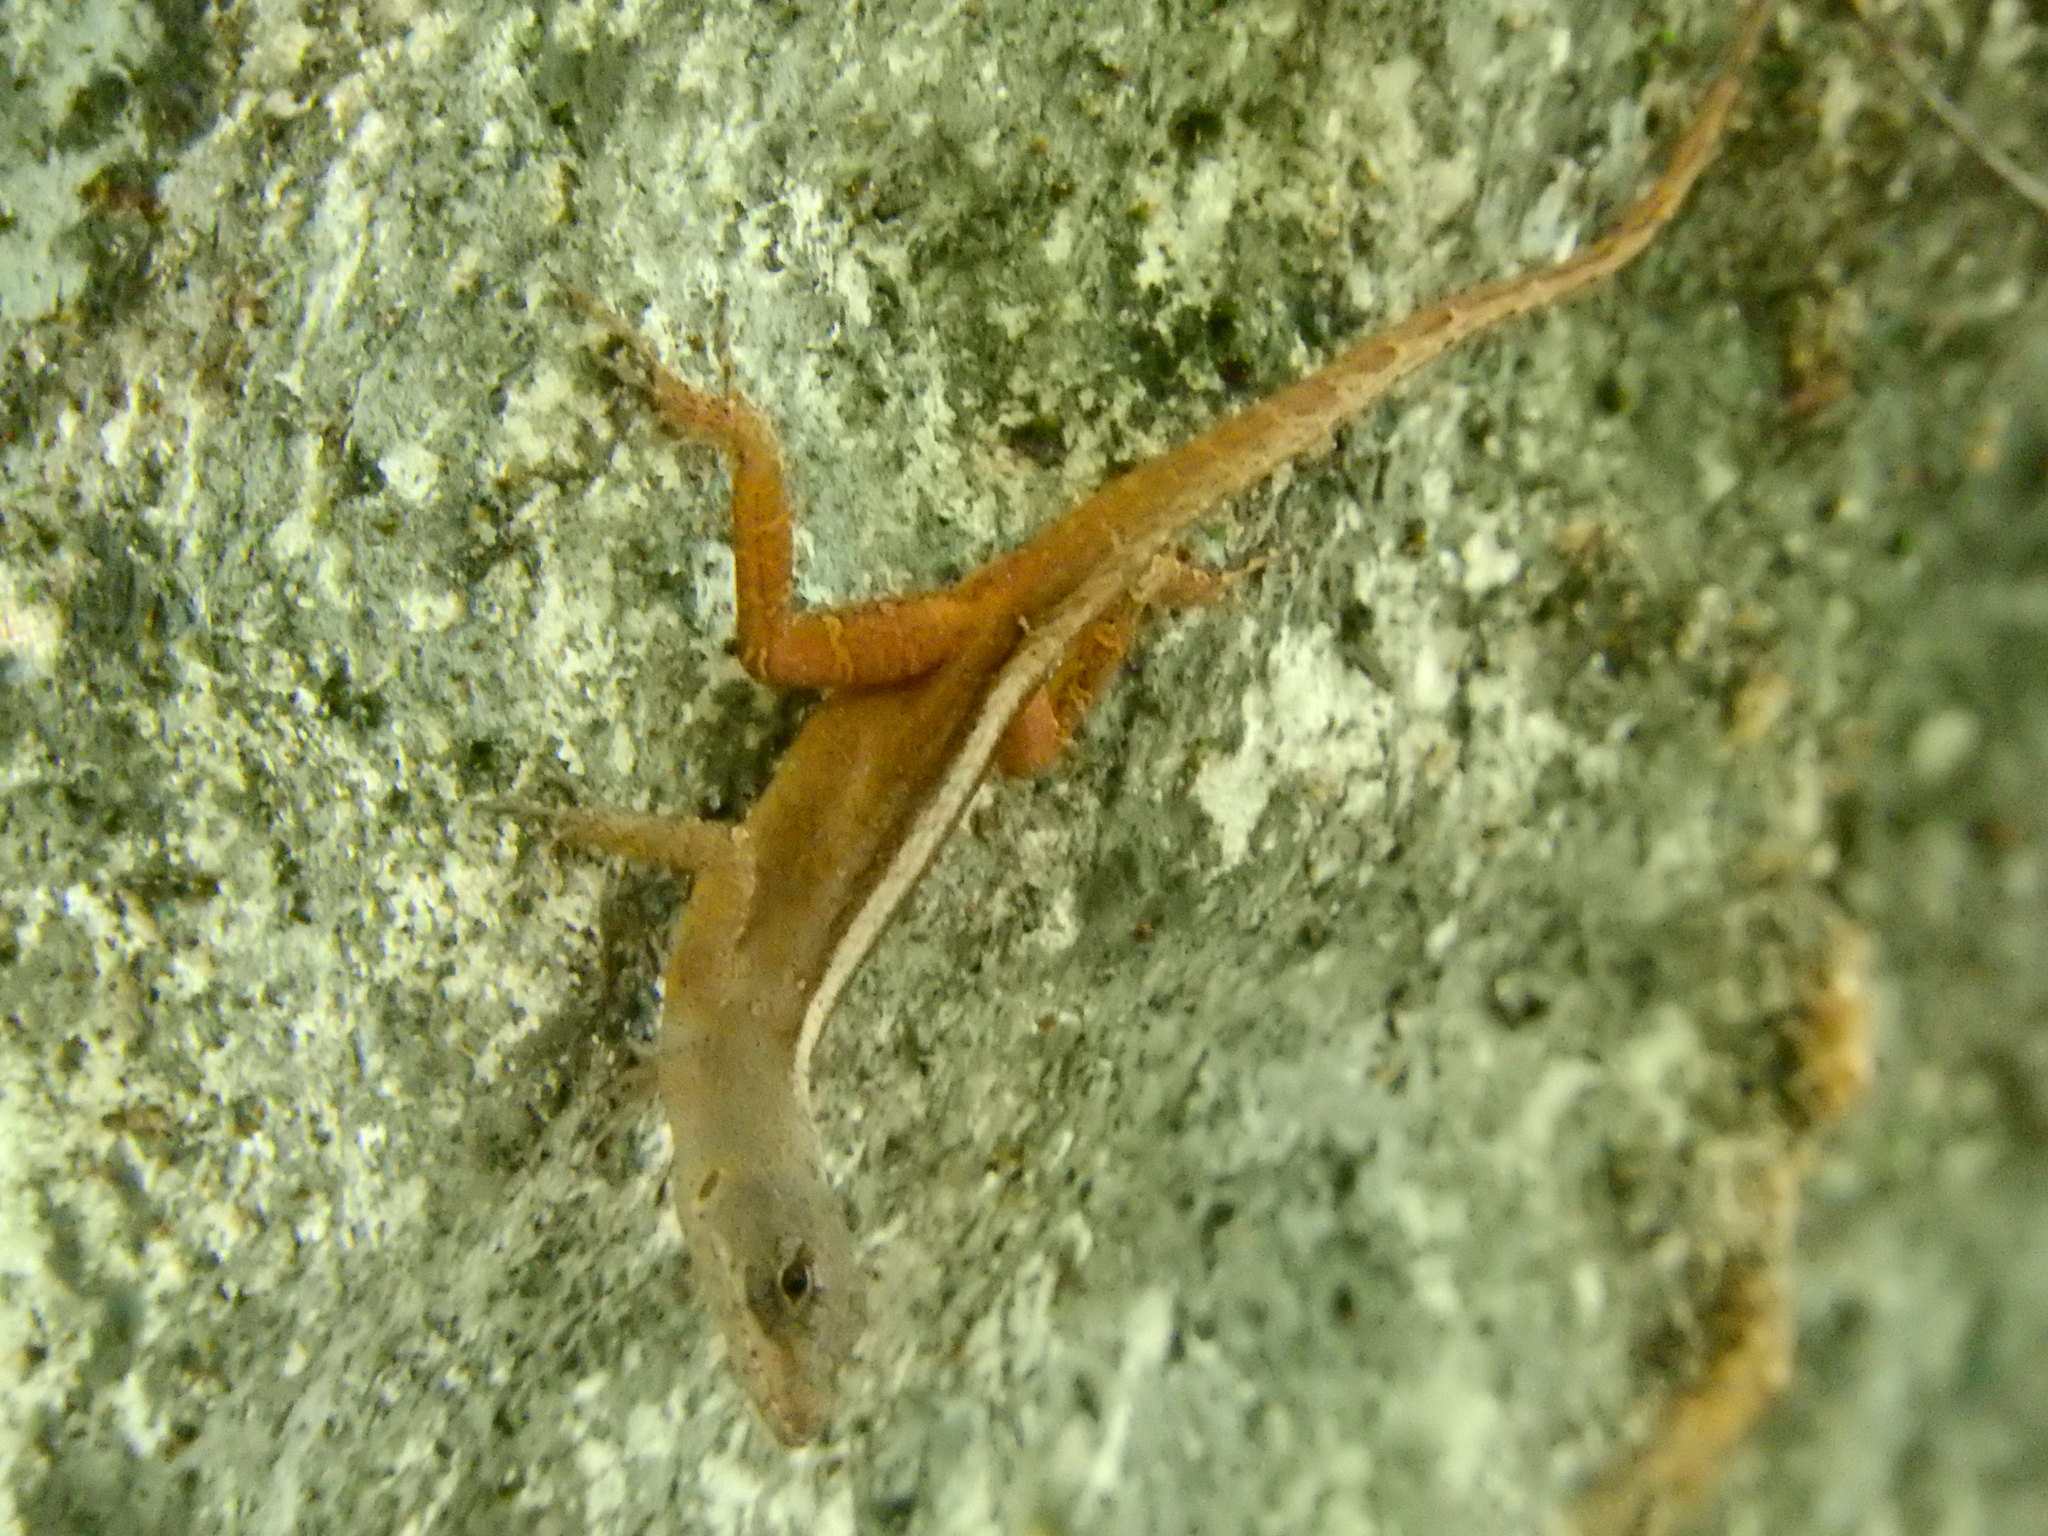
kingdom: Animalia
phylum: Chordata
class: Squamata
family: Dactyloidae
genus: Anolis
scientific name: Anolis sagrei
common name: Brown anole
